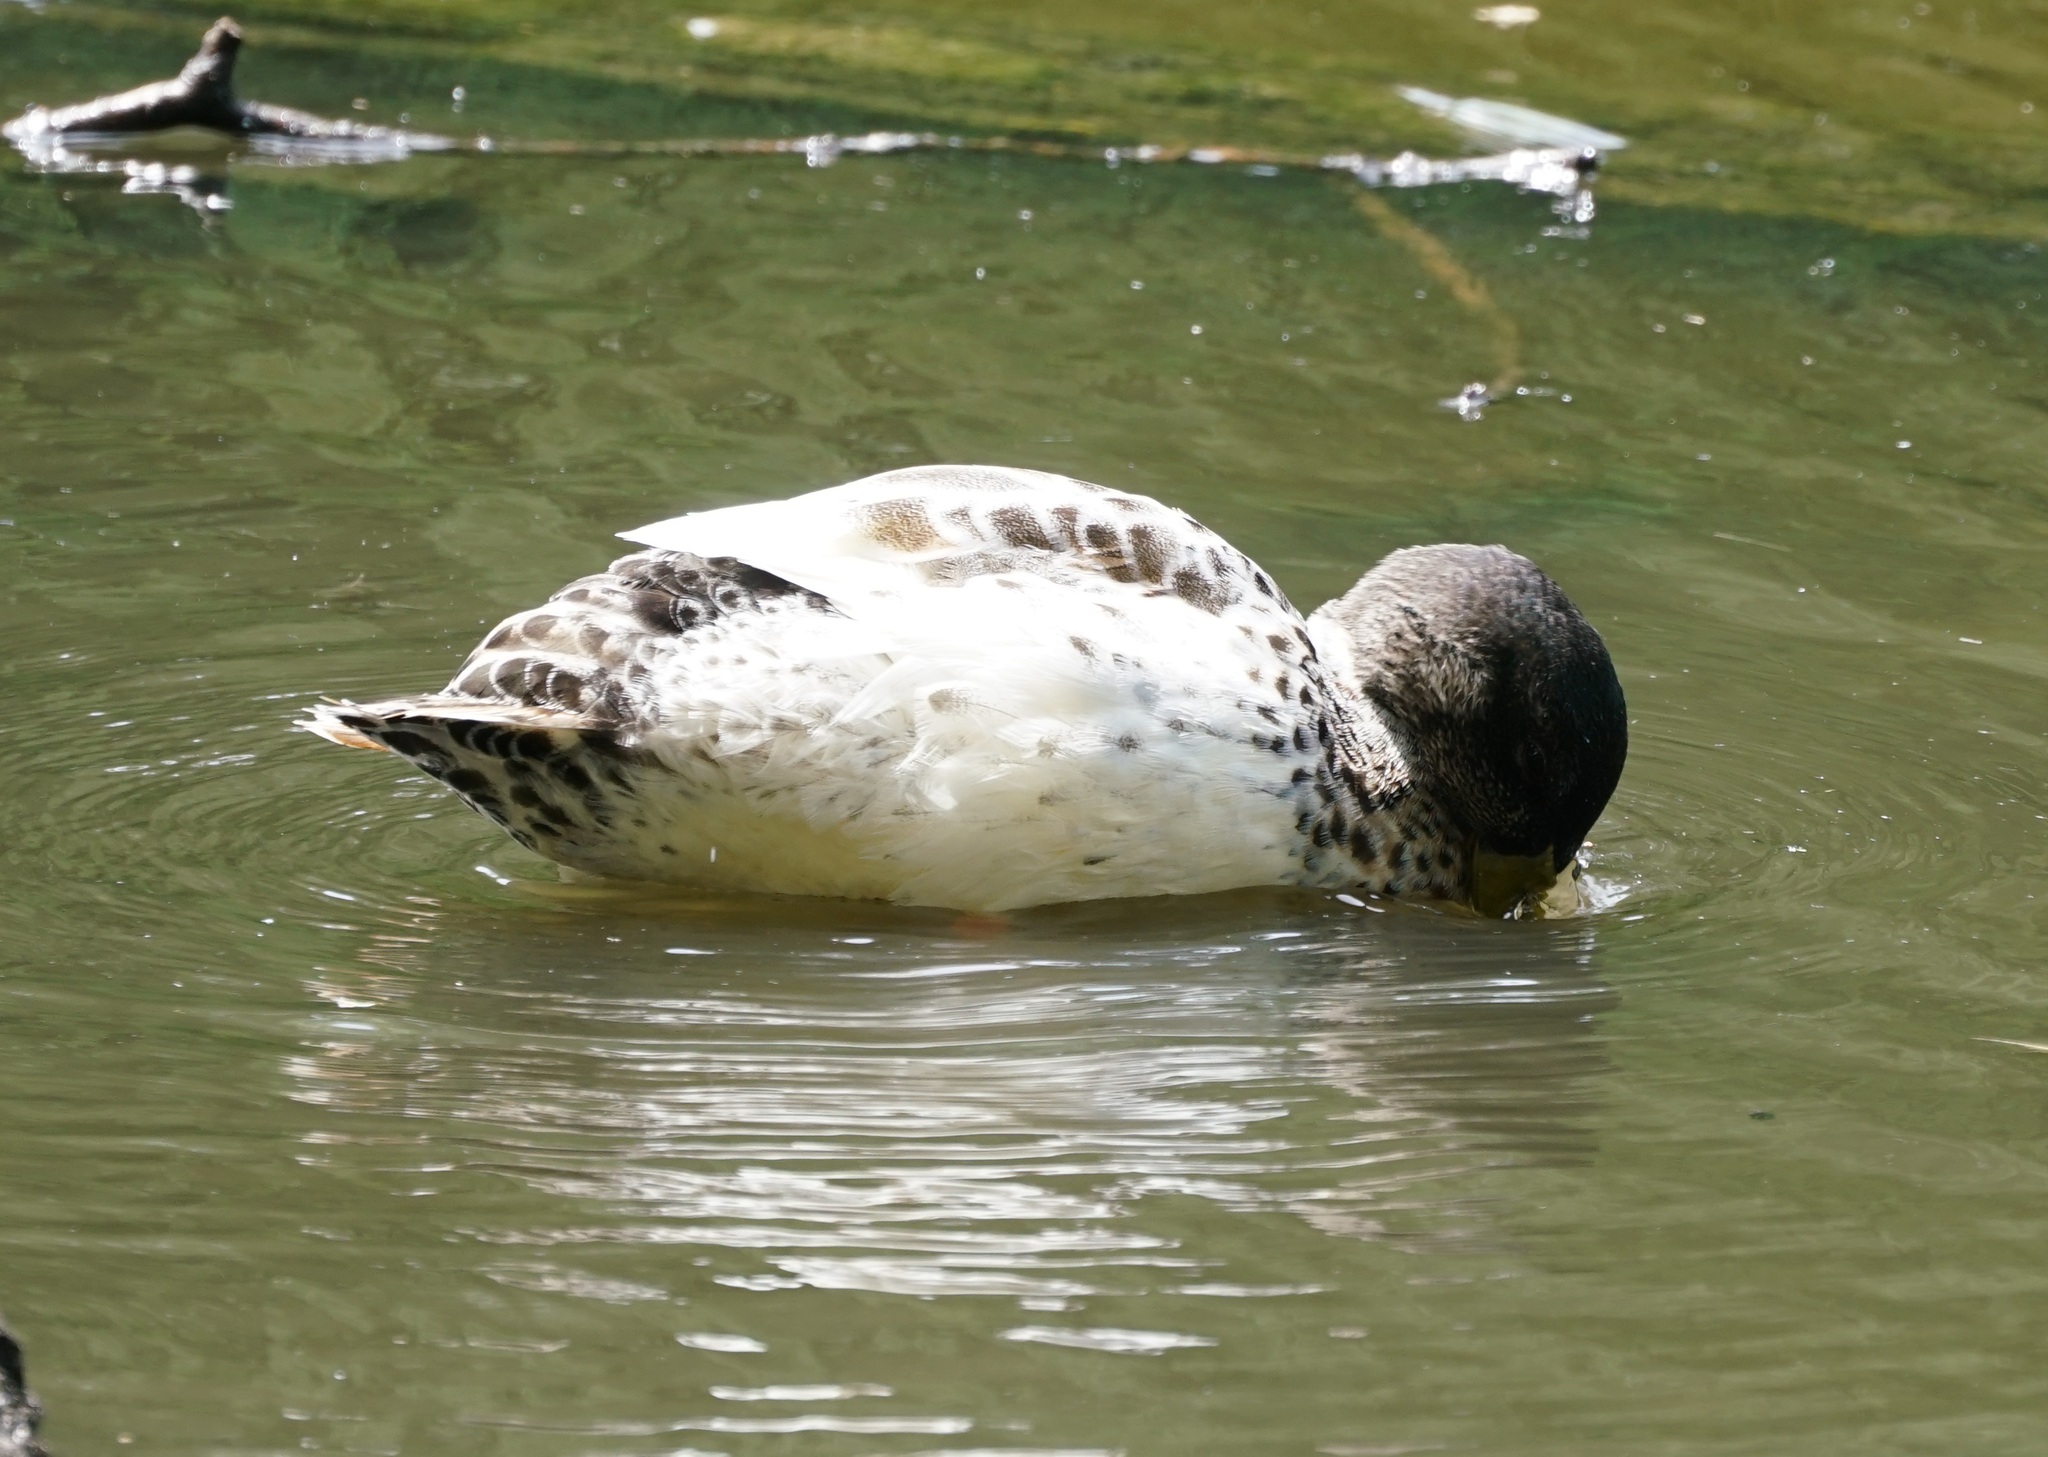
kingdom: Animalia
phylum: Chordata
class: Aves
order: Anseriformes
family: Anatidae
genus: Anas
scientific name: Anas platyrhynchos
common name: Mallard
